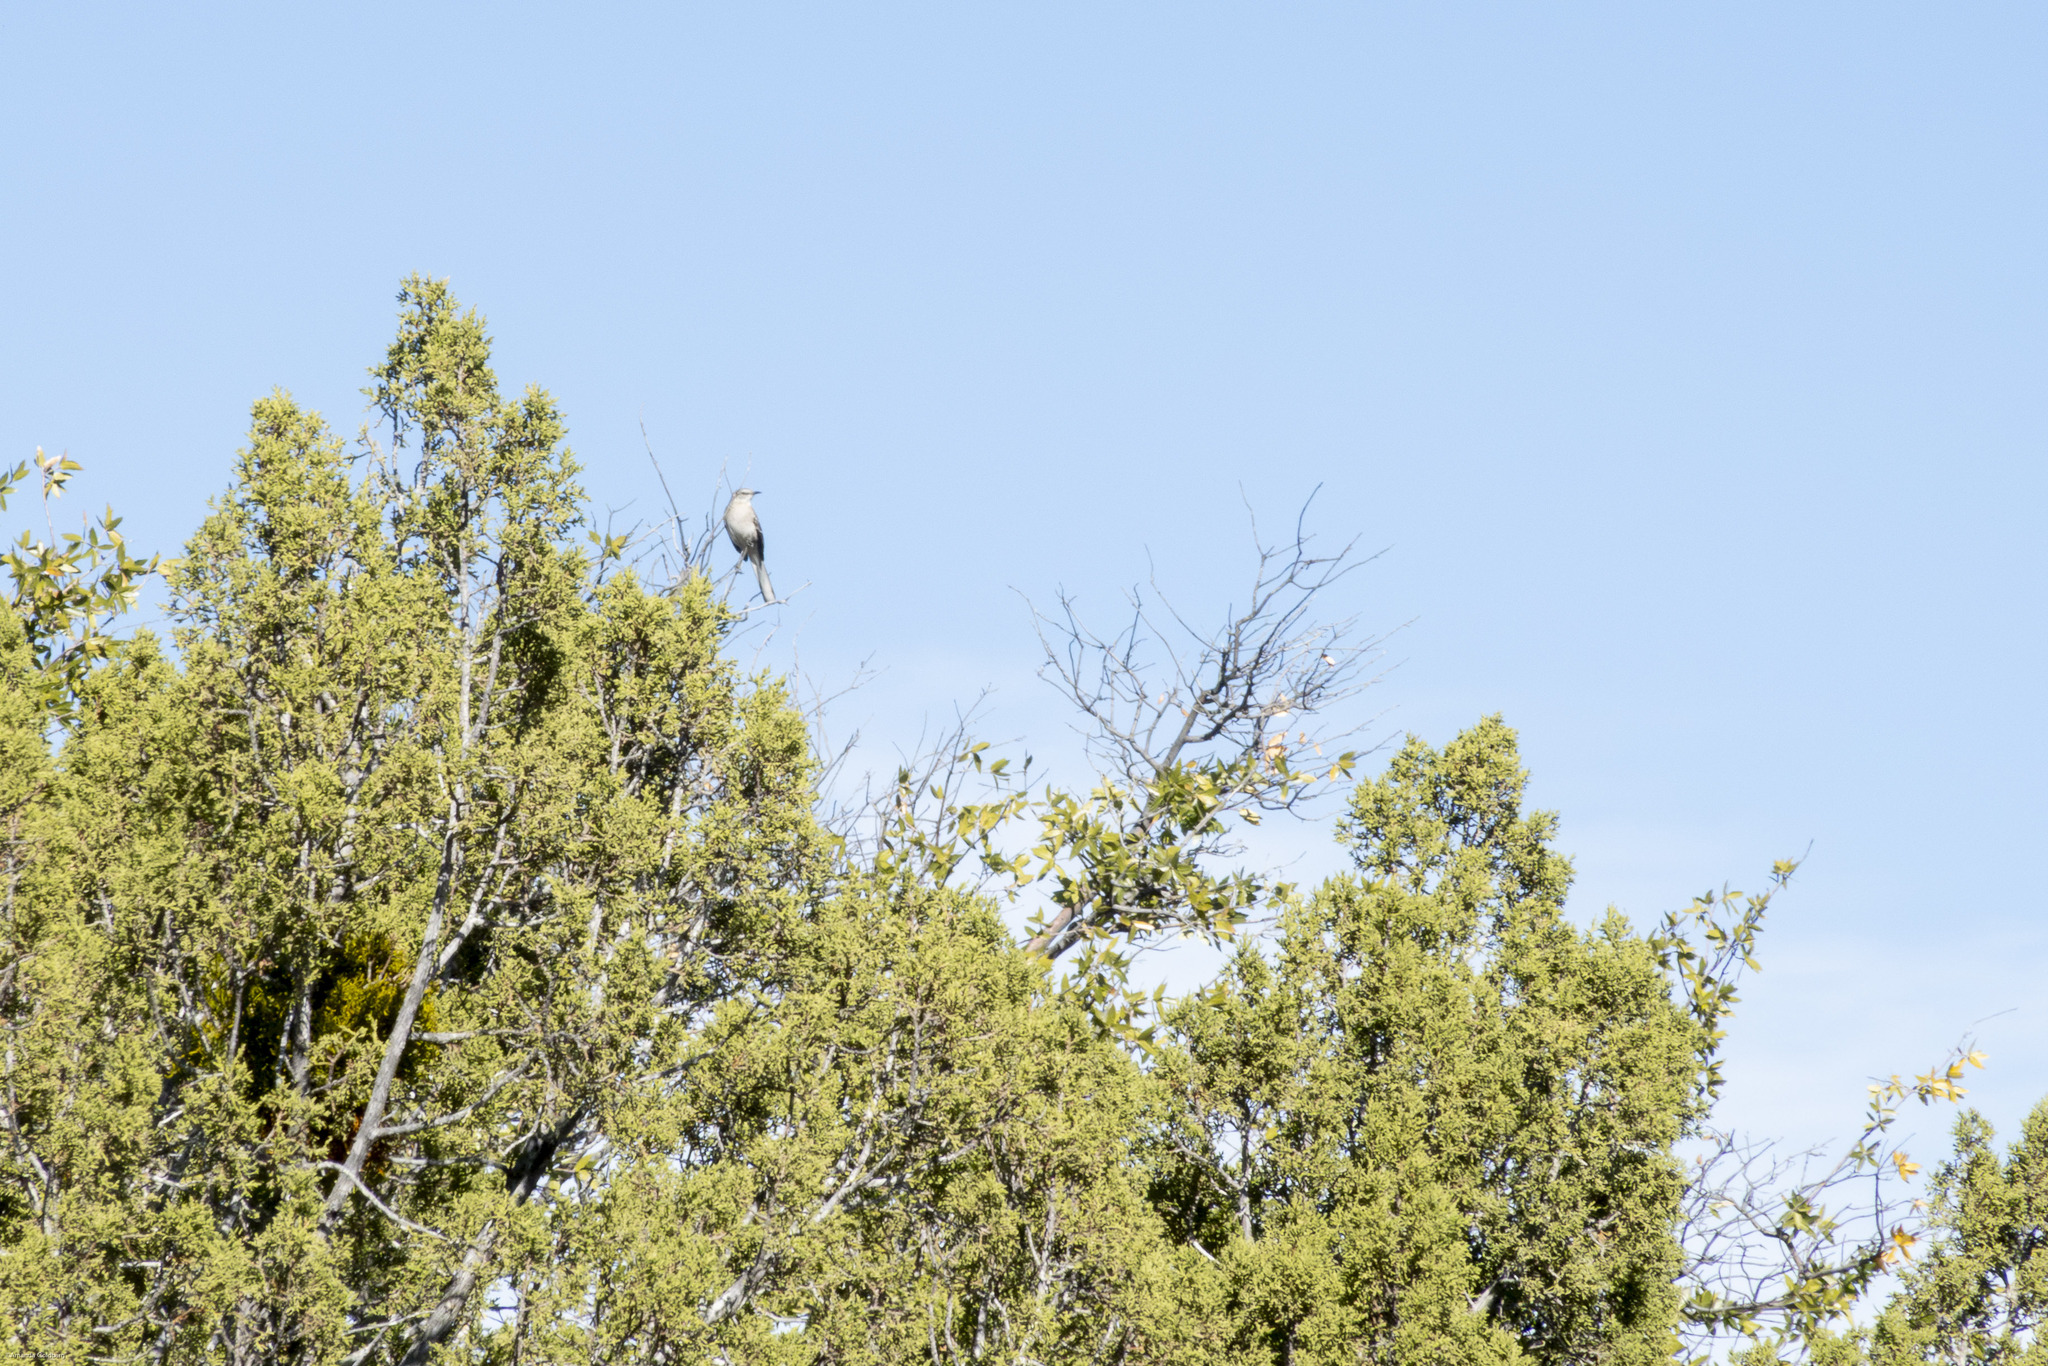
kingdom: Animalia
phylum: Chordata
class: Aves
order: Passeriformes
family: Mimidae
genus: Mimus
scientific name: Mimus polyglottos
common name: Northern mockingbird
